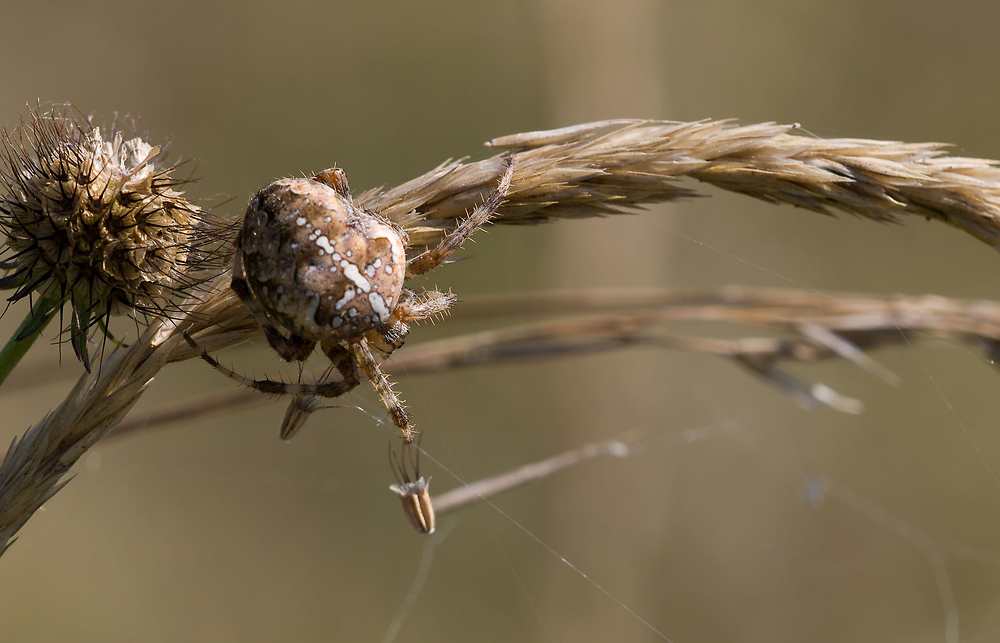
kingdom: Animalia
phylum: Arthropoda
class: Arachnida
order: Araneae
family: Araneidae
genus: Araneus
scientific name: Araneus diadematus
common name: Cross orbweaver
